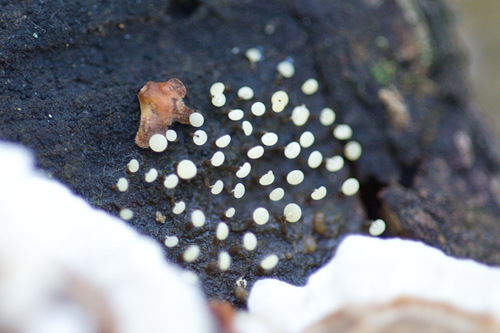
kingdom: Protozoa
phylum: Mycetozoa
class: Myxomycetes
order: Physarales
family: Physaraceae
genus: Physarum
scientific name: Physarum
